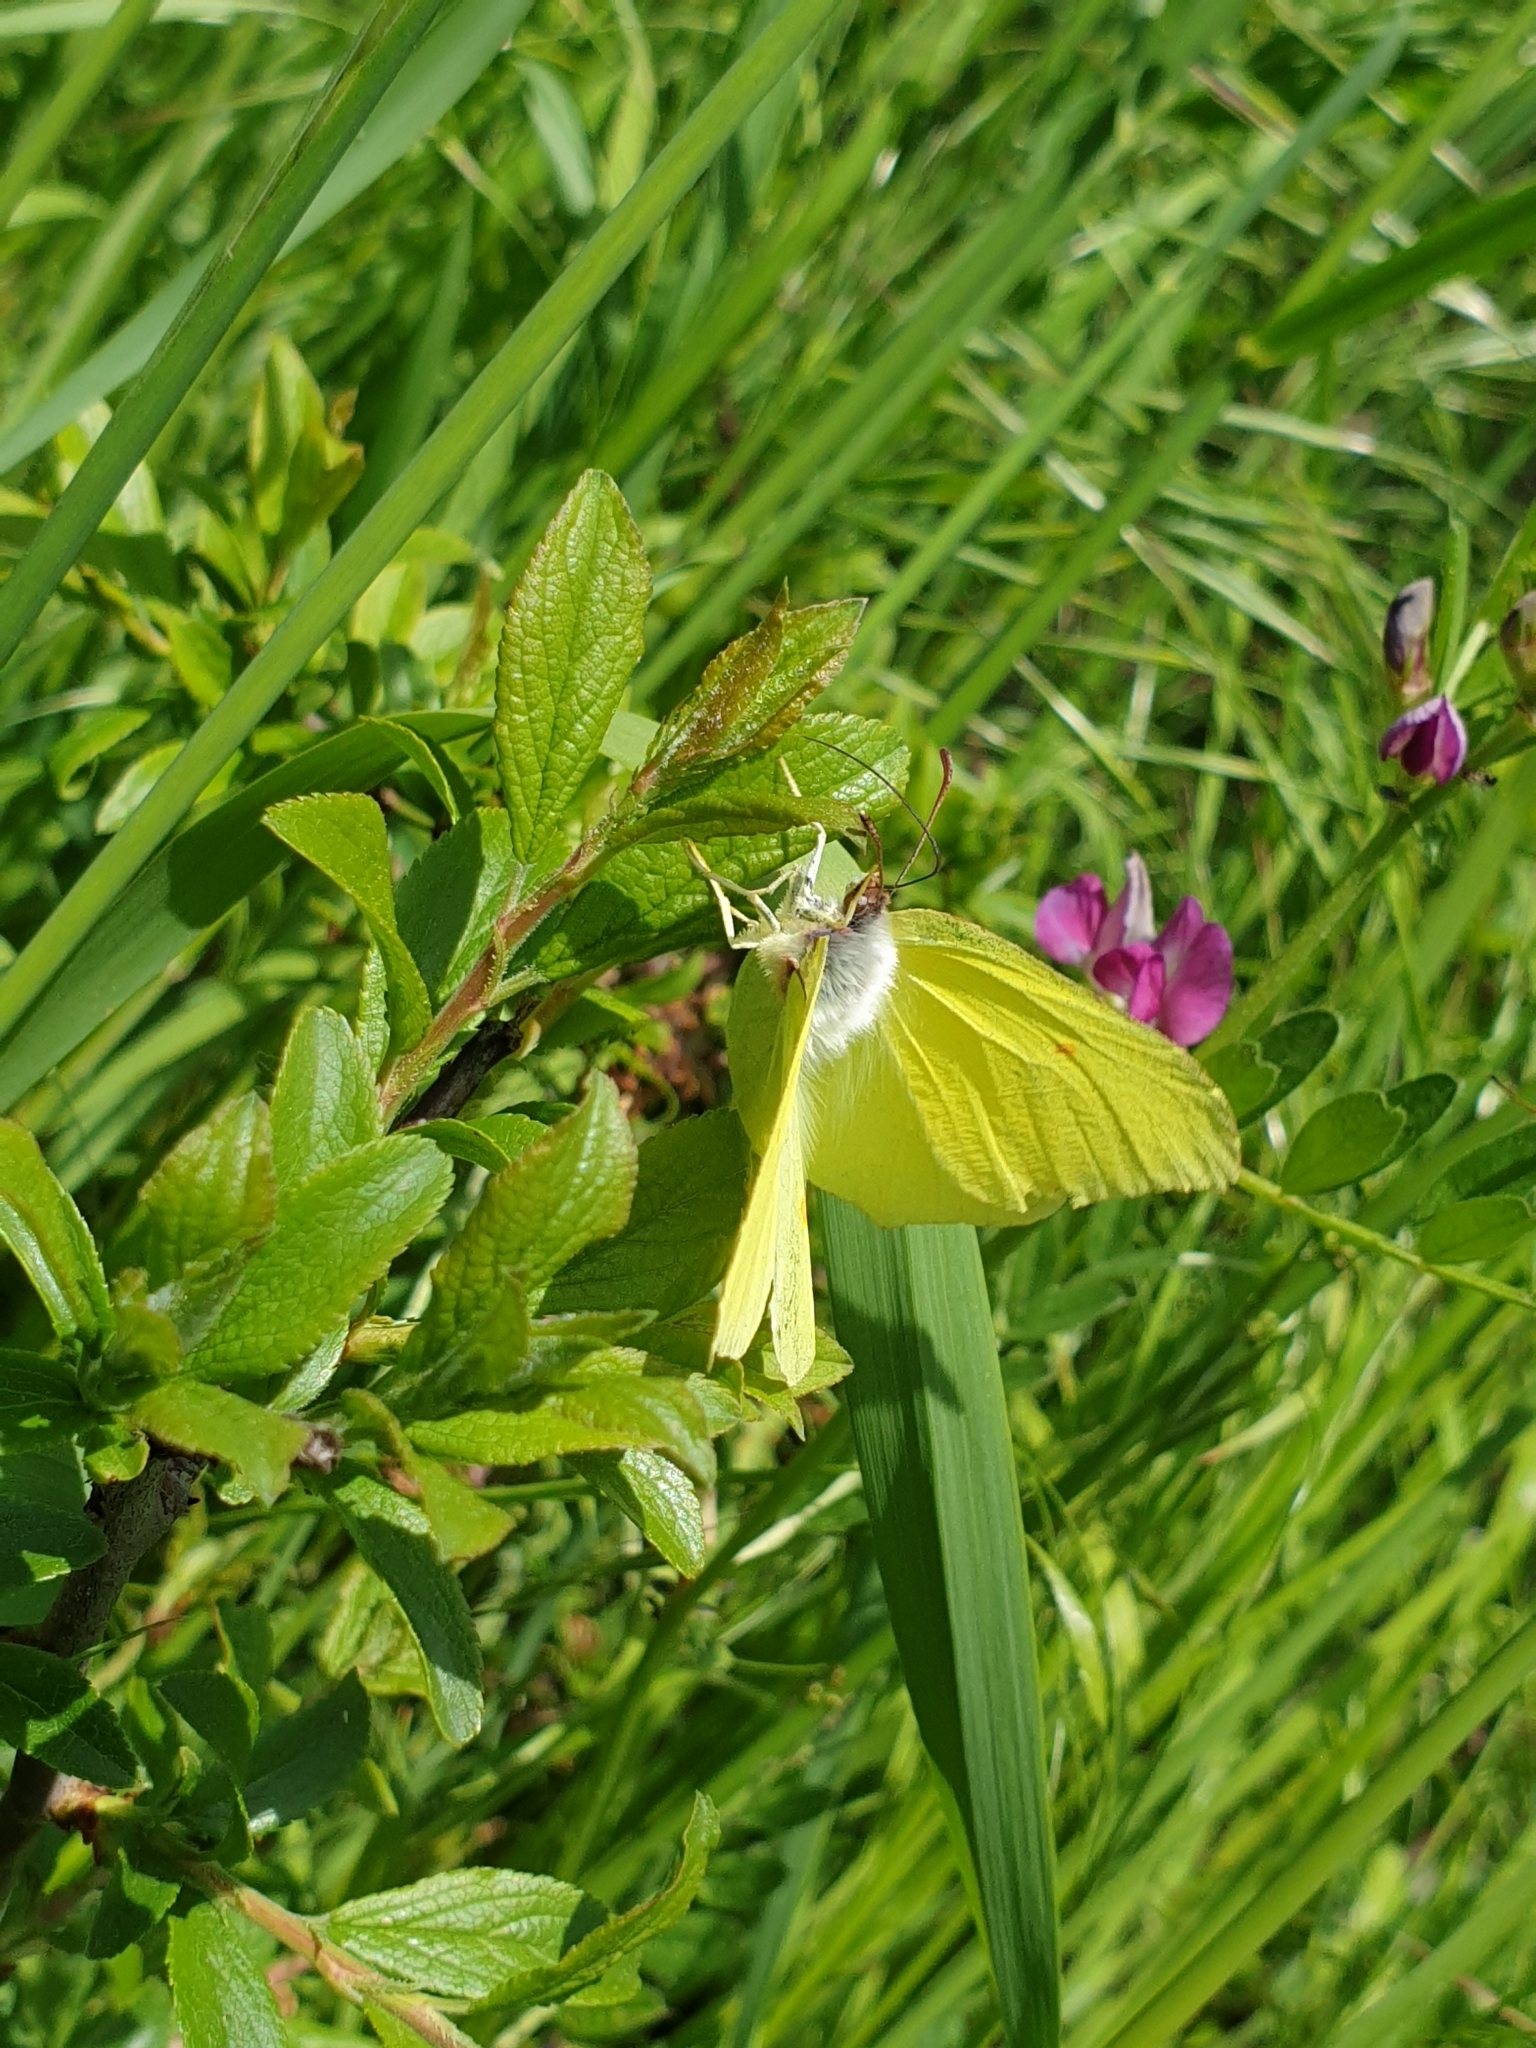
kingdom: Animalia
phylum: Arthropoda
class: Insecta
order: Lepidoptera
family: Pieridae
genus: Gonepteryx
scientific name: Gonepteryx rhamni
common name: Brimstone
